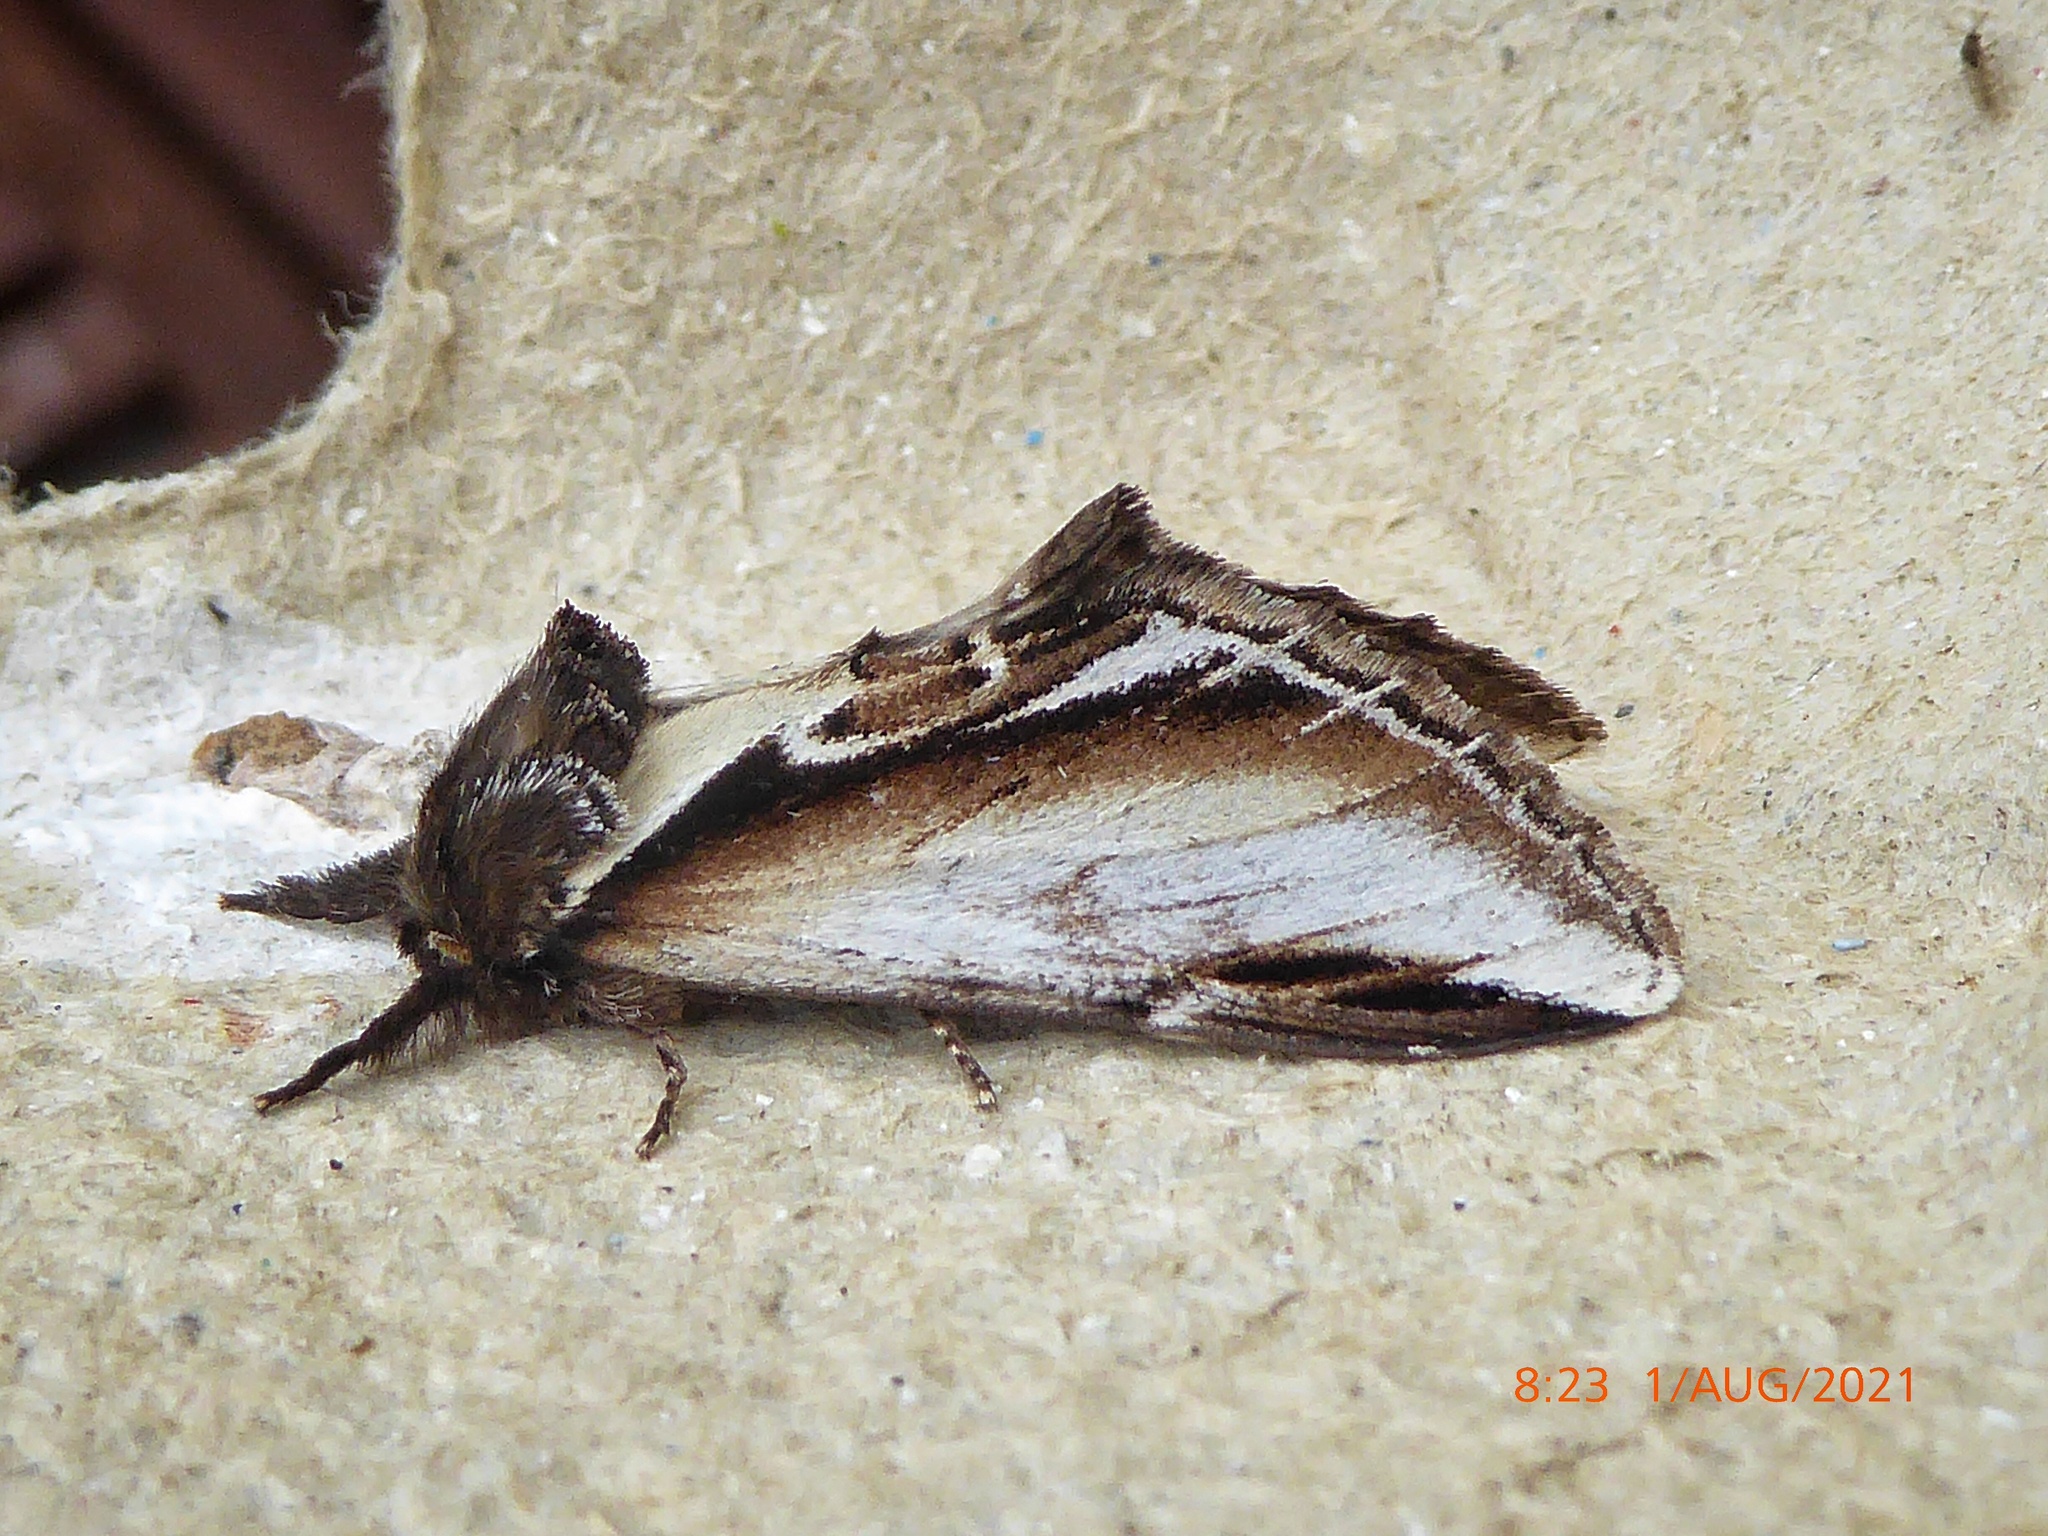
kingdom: Animalia
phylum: Arthropoda
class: Insecta
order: Lepidoptera
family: Notodontidae
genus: Pheosia
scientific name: Pheosia gnoma
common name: Lesser swallow prominent
